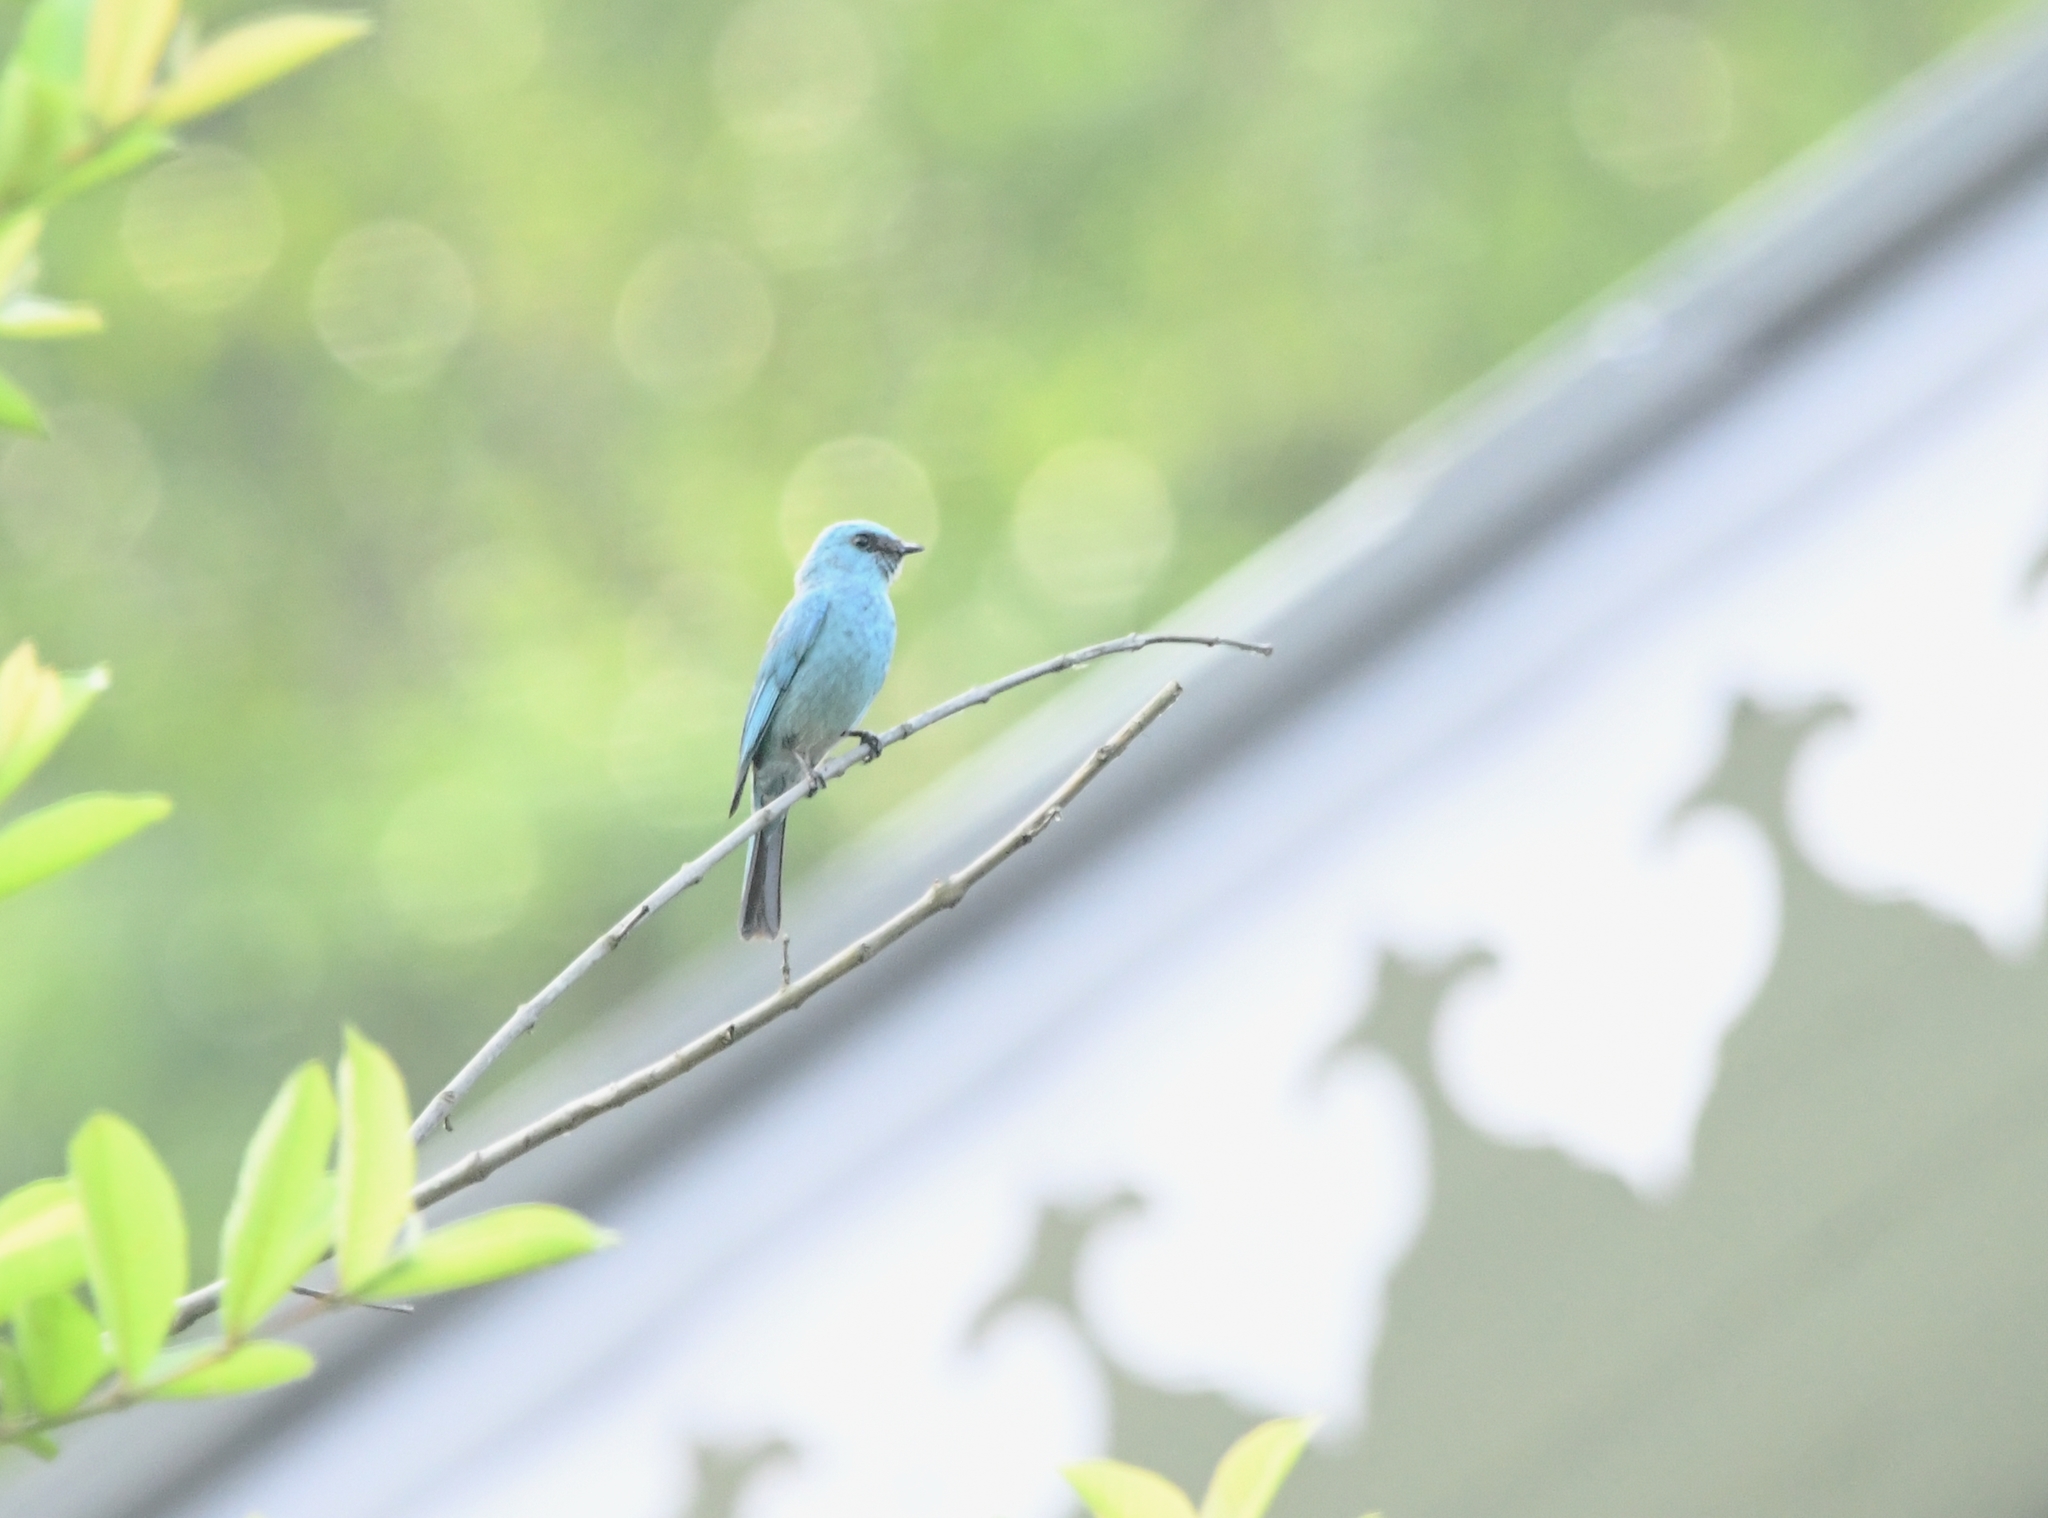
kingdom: Animalia
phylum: Chordata
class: Aves
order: Passeriformes
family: Muscicapidae
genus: Eumyias
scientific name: Eumyias thalassinus
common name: Verditer flycatcher
